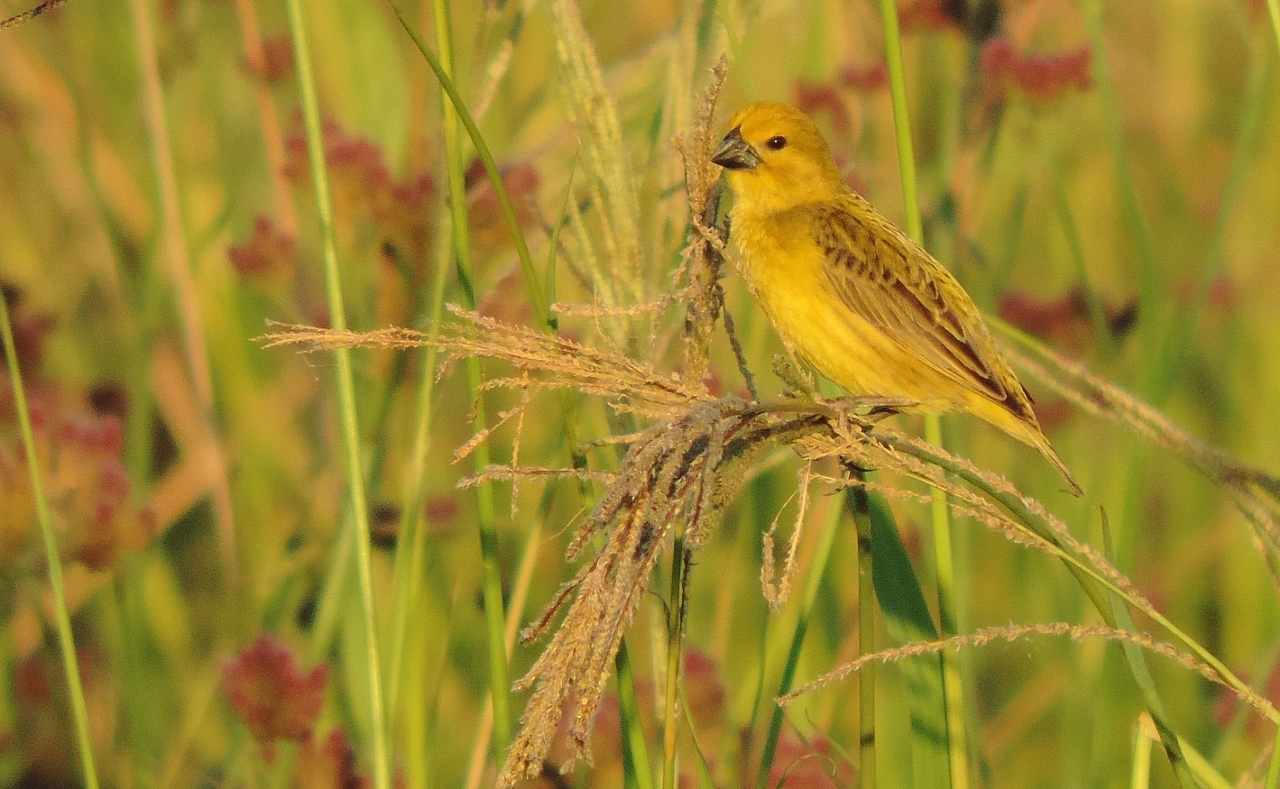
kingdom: Animalia
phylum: Chordata
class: Aves
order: Passeriformes
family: Viduidae
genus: Anomalospiza
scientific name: Anomalospiza imberbis
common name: Cuckoo weaver
